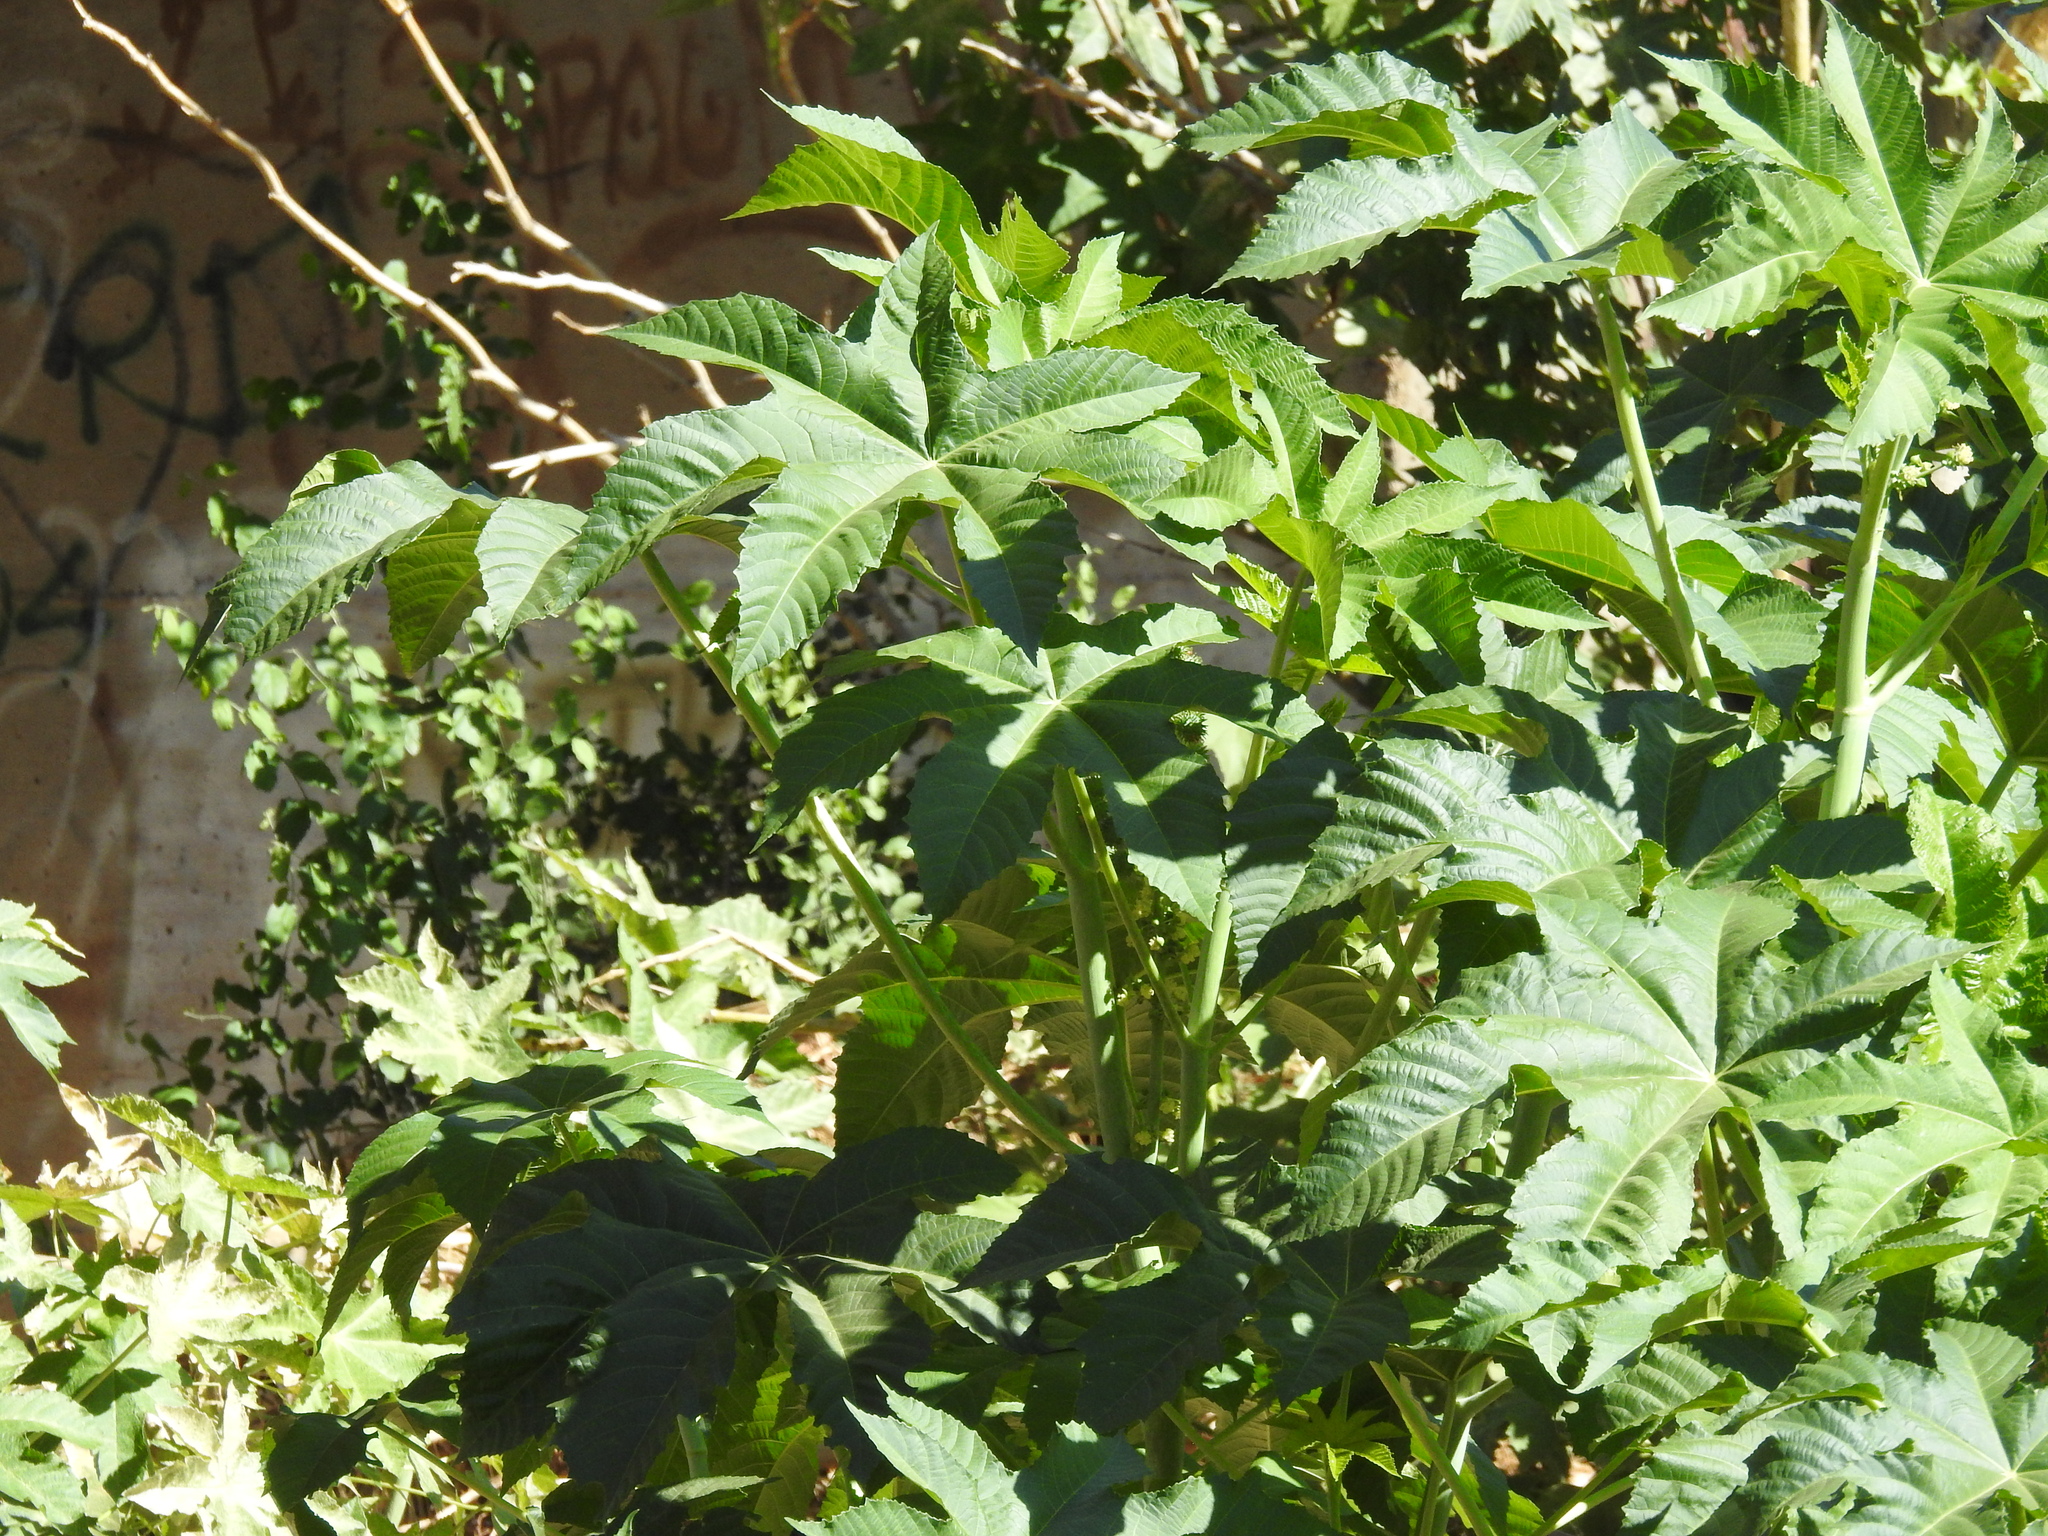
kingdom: Plantae
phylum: Tracheophyta
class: Magnoliopsida
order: Malpighiales
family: Euphorbiaceae
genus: Ricinus
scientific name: Ricinus communis
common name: Castor-oil-plant
